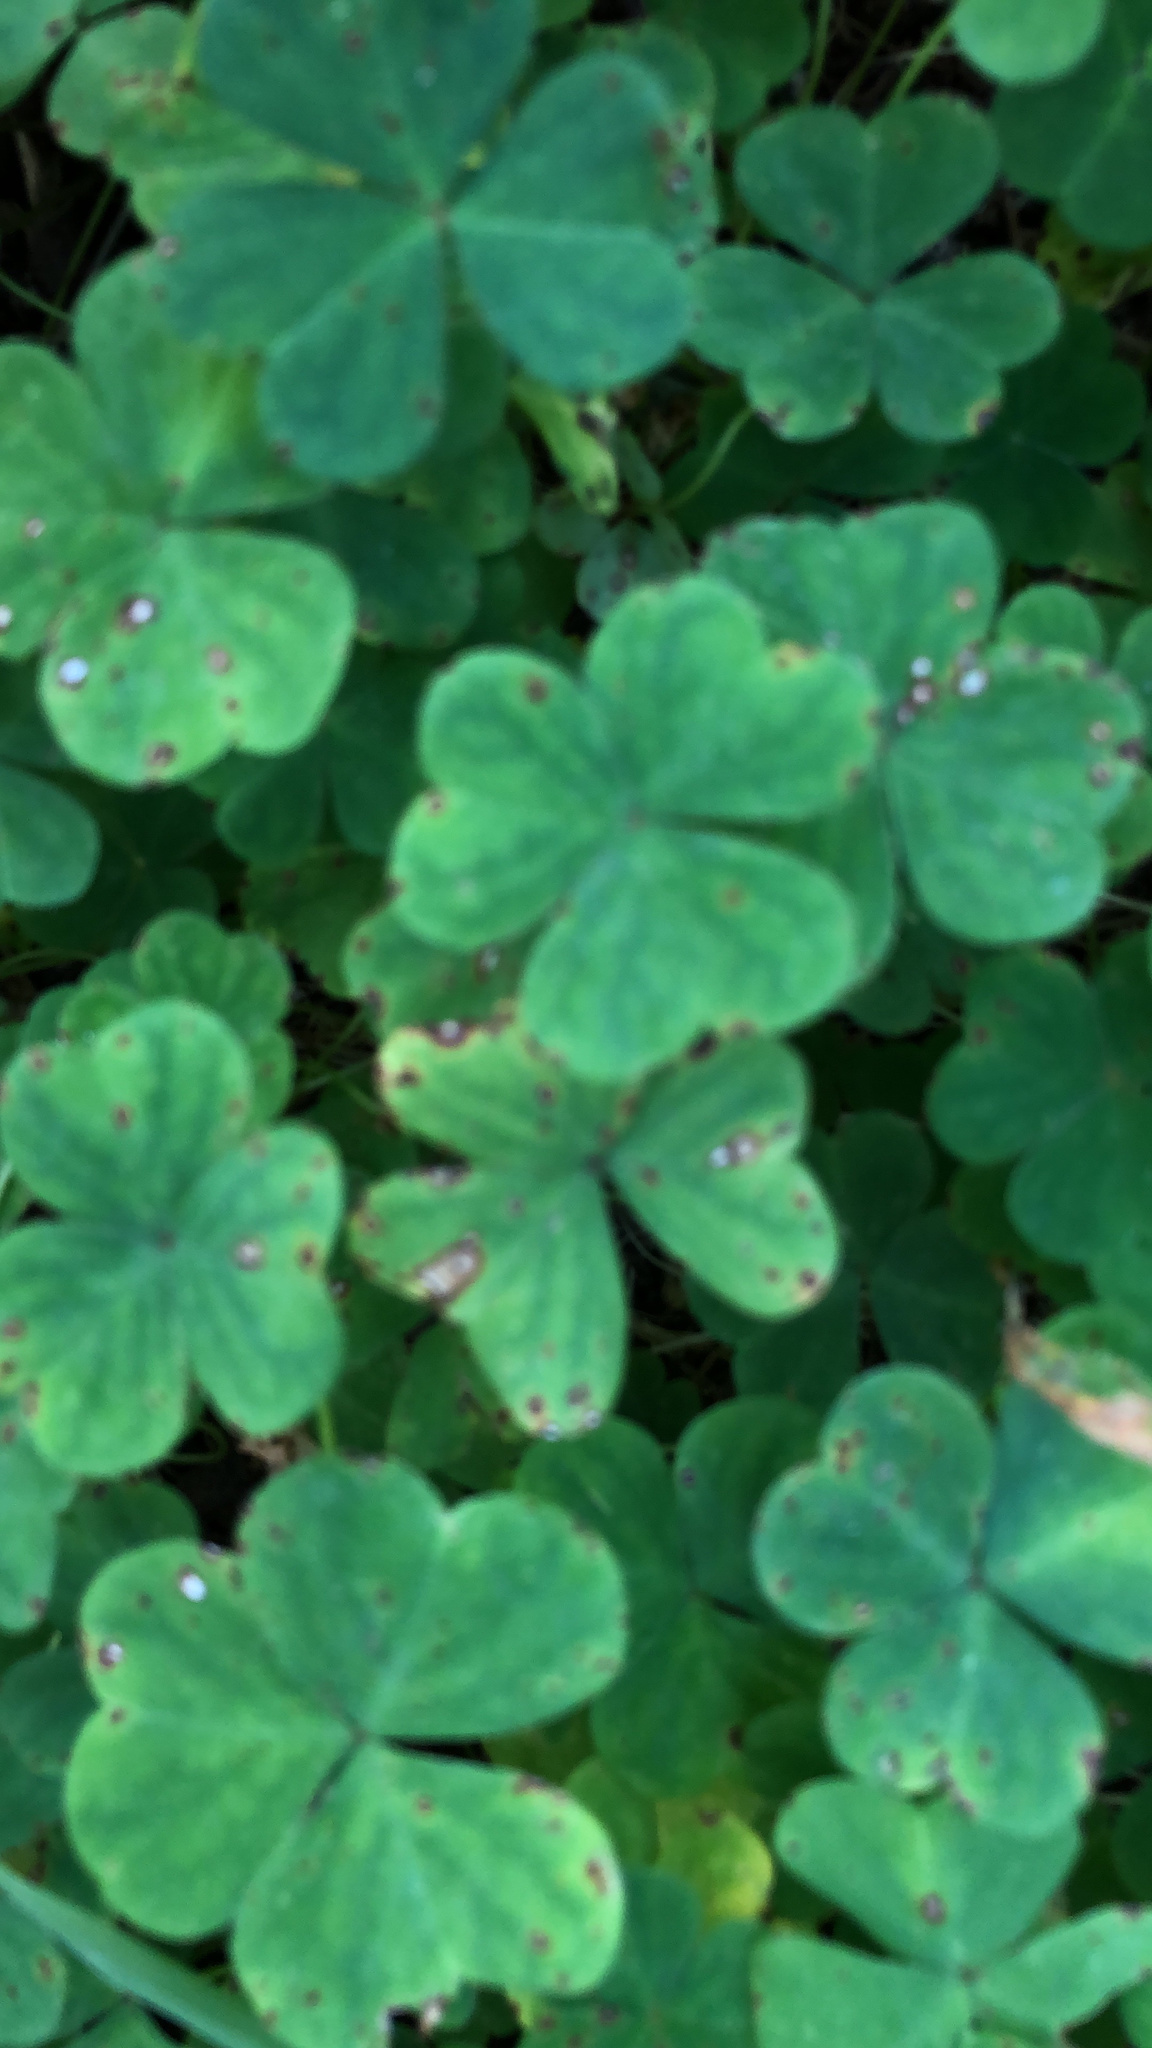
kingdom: Plantae
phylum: Tracheophyta
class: Magnoliopsida
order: Oxalidales
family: Oxalidaceae
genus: Oxalis
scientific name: Oxalis
